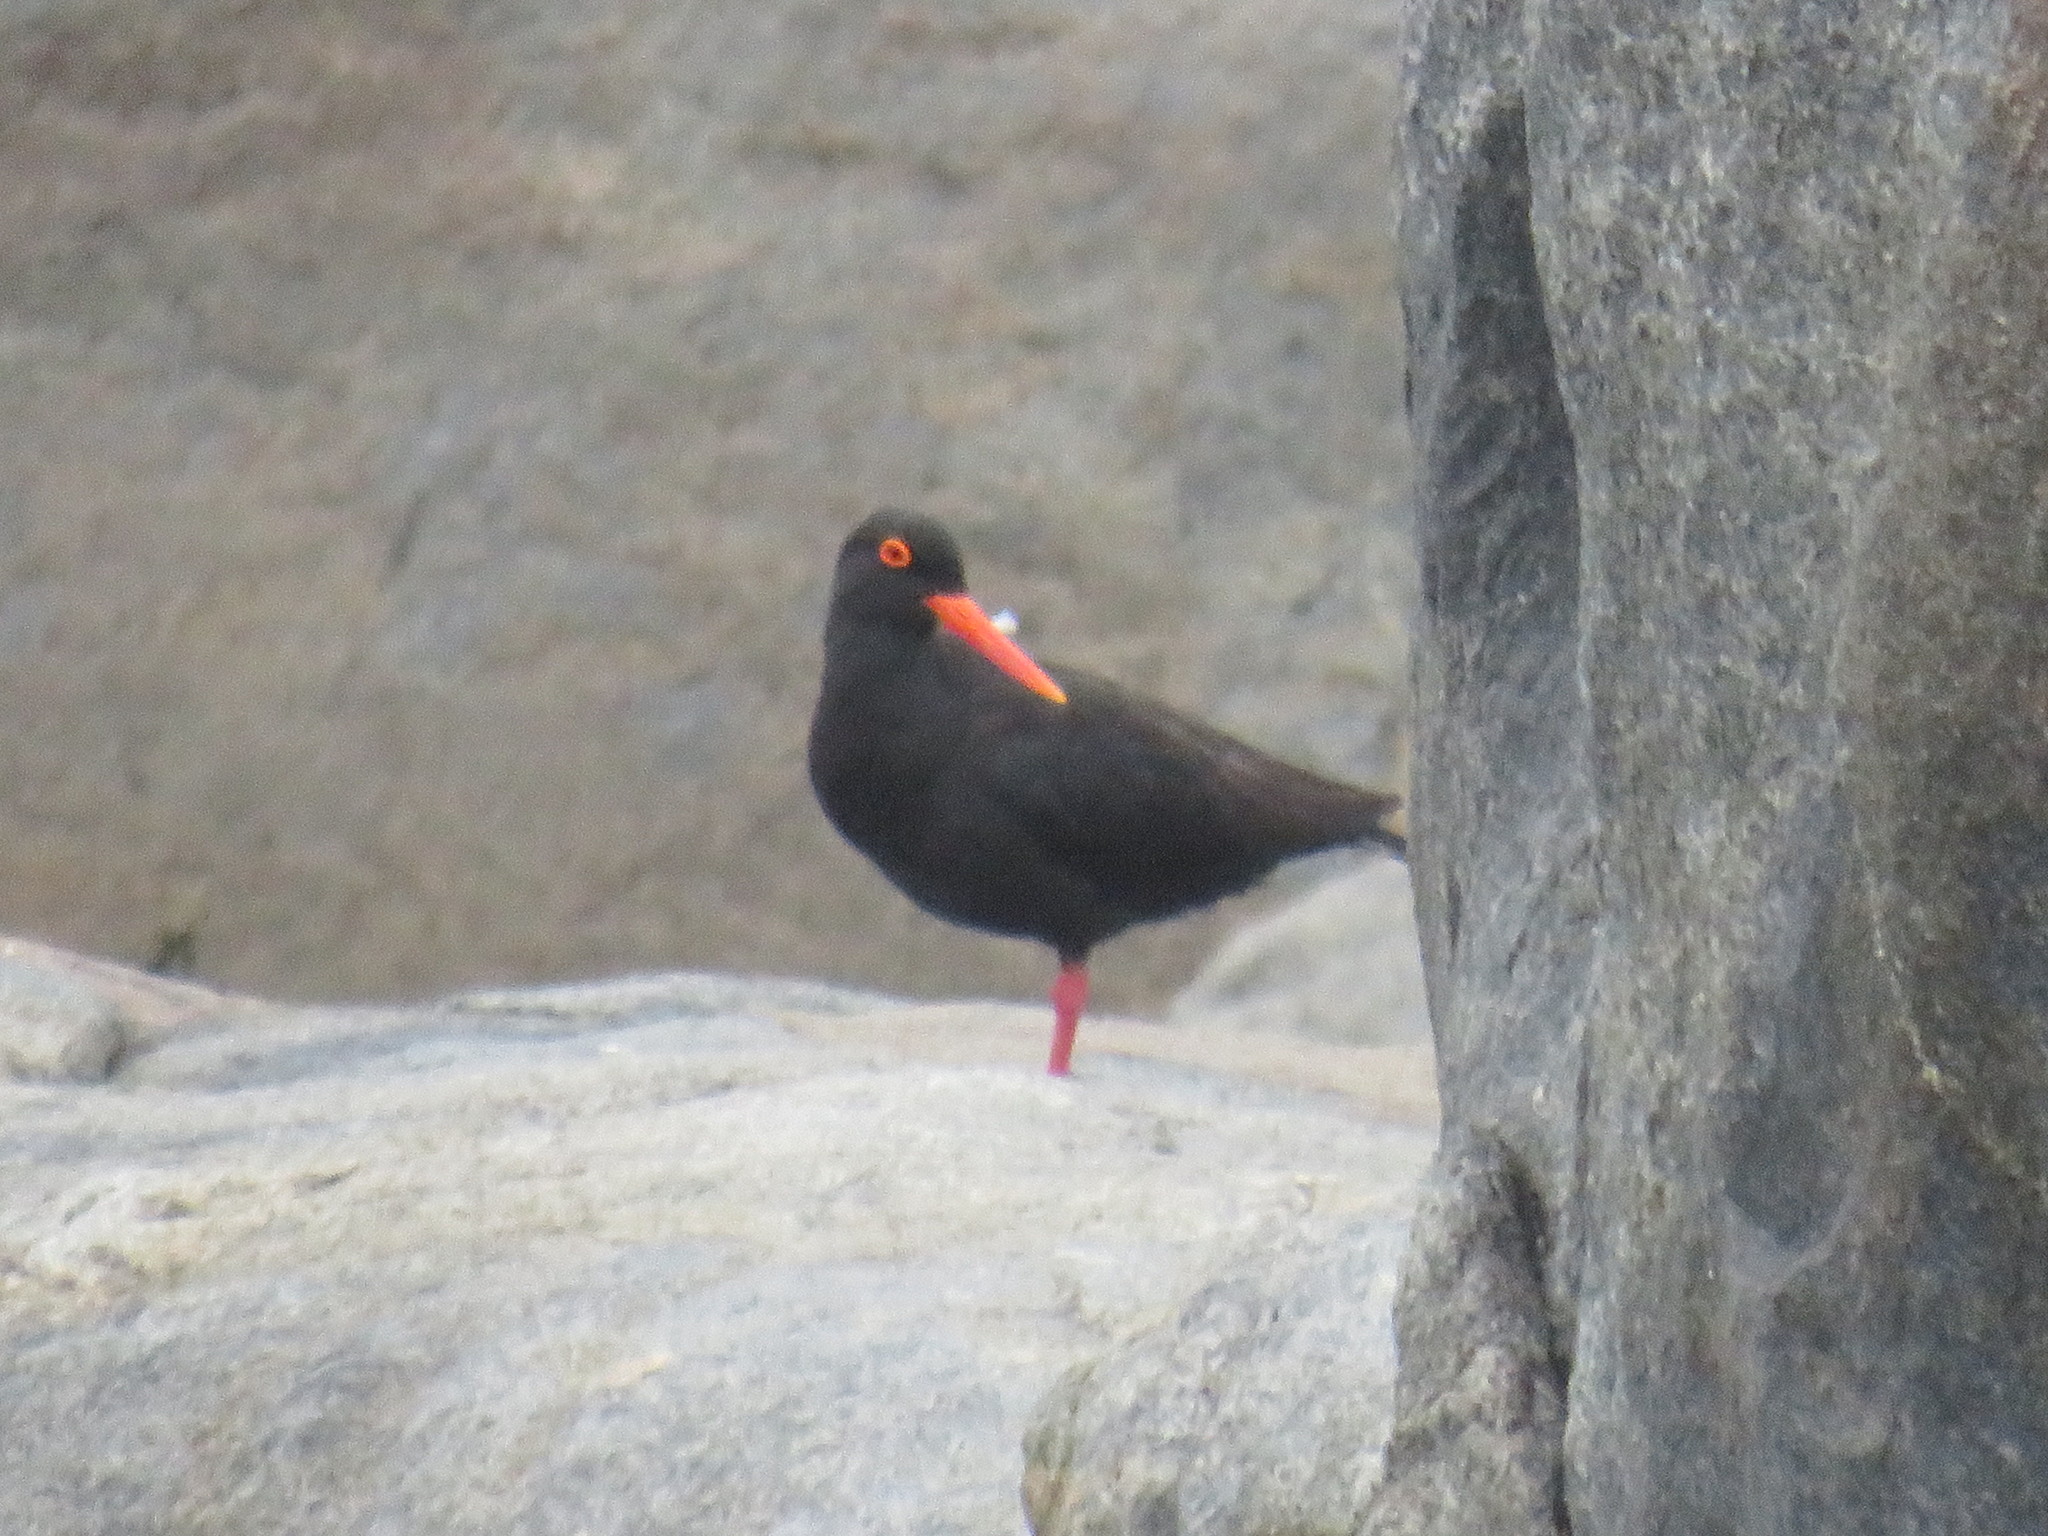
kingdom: Animalia
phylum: Chordata
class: Aves
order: Charadriiformes
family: Haematopodidae
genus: Haematopus
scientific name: Haematopus moquini
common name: African oystercatcher
